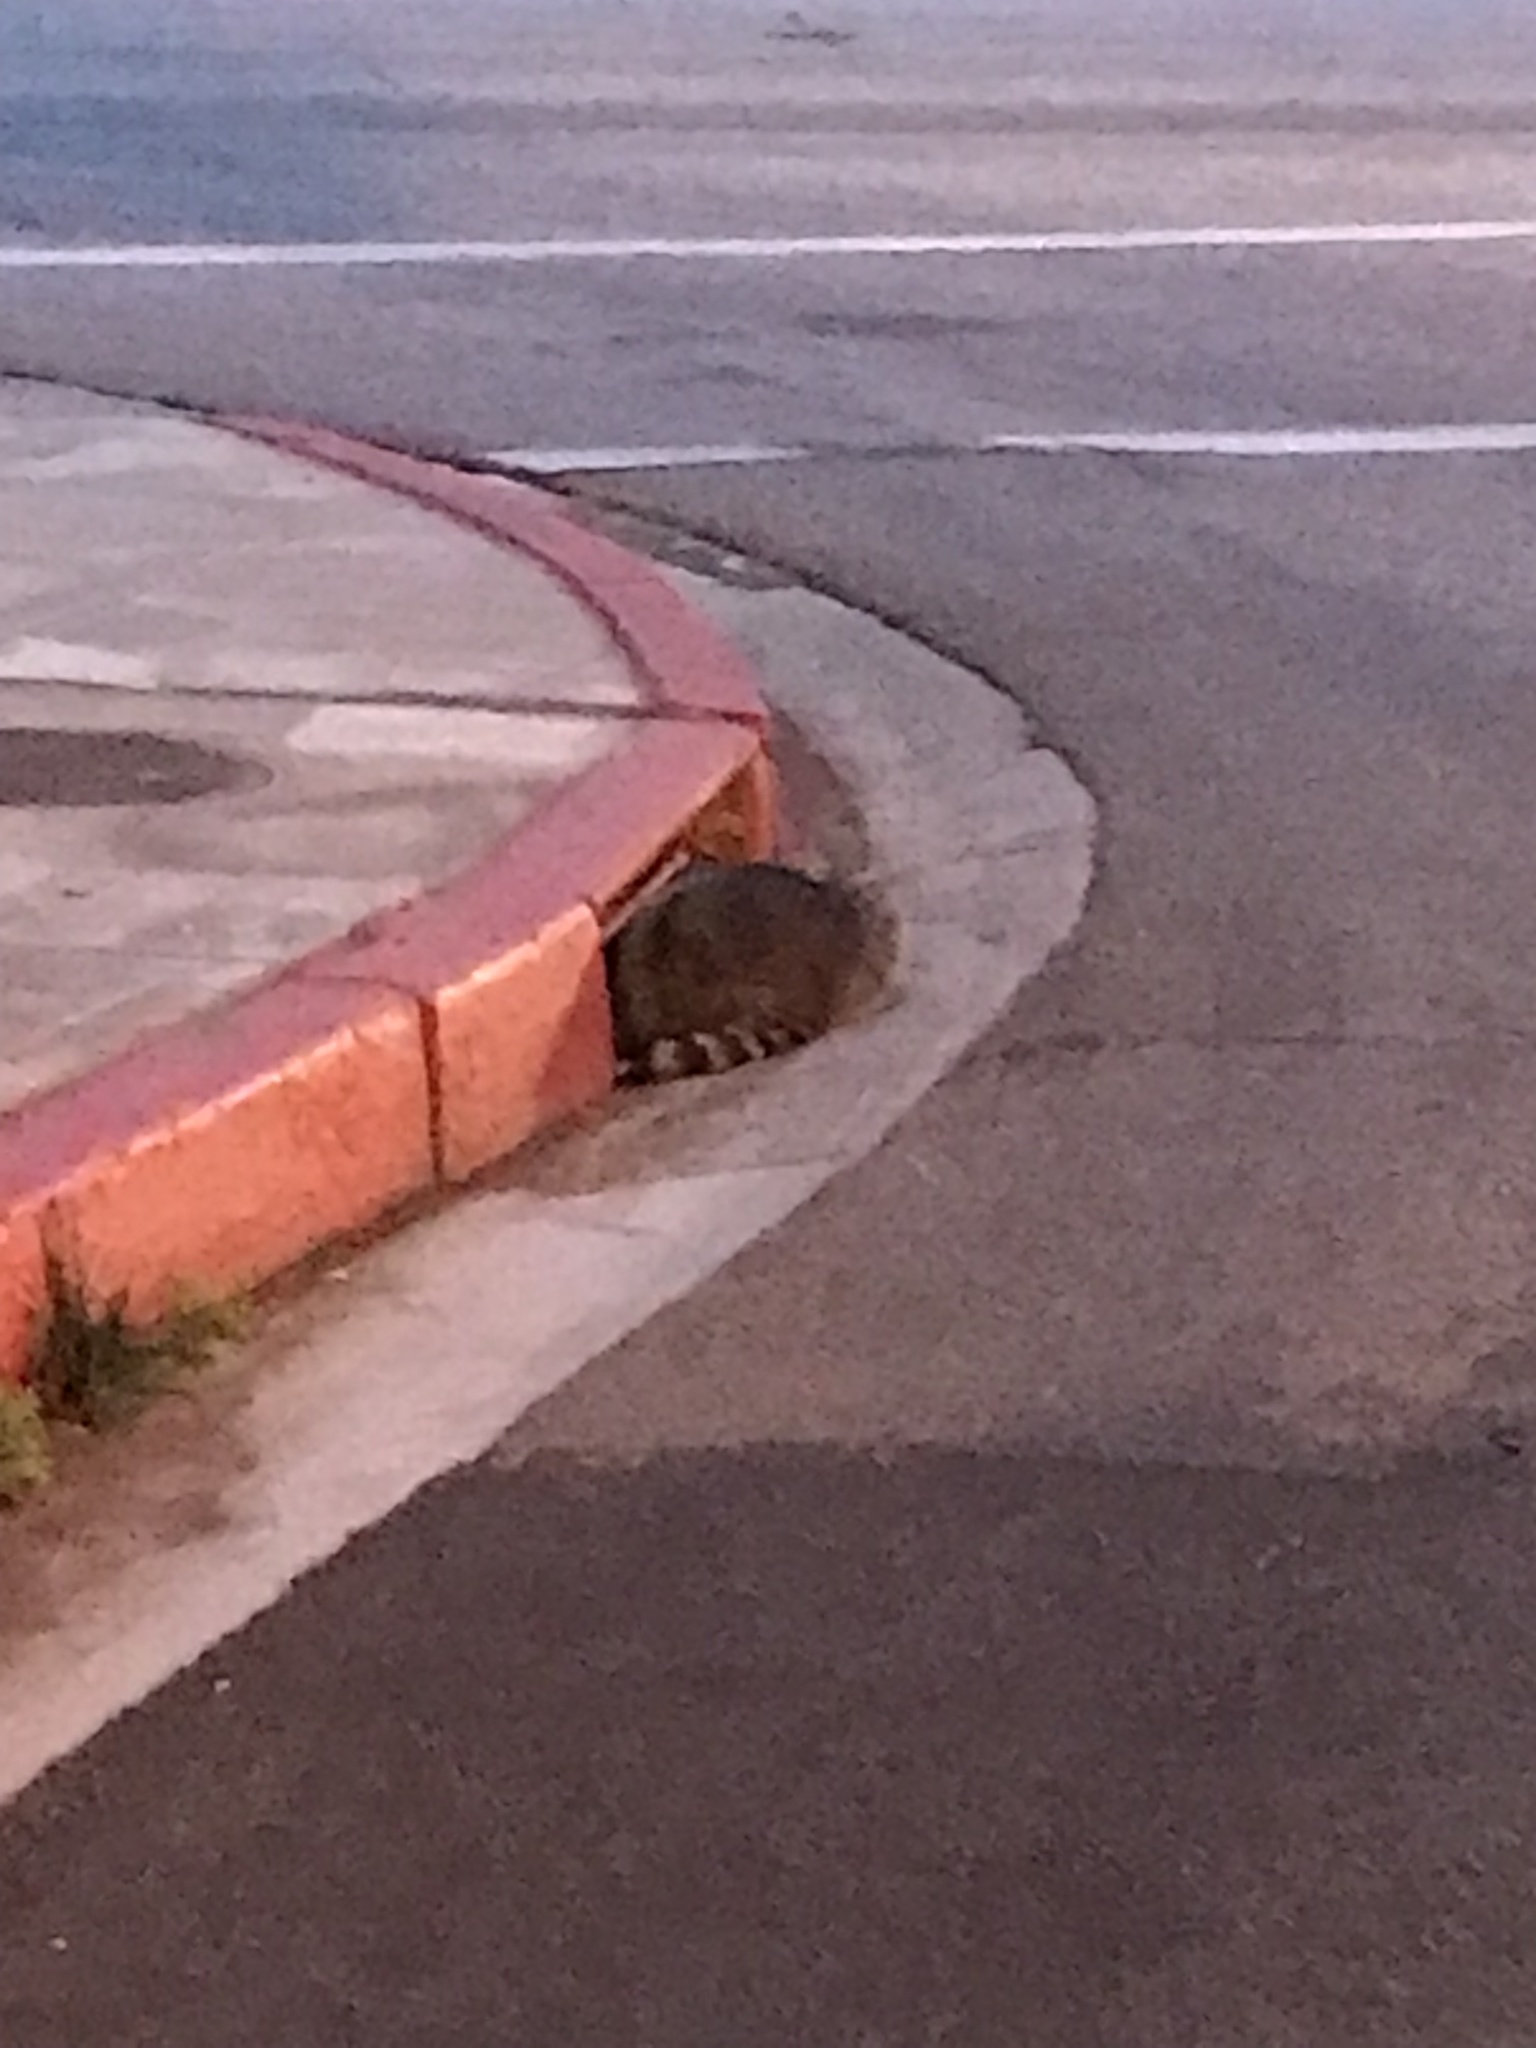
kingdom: Animalia
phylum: Chordata
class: Mammalia
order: Carnivora
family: Procyonidae
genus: Procyon
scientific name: Procyon lotor
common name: Raccoon
